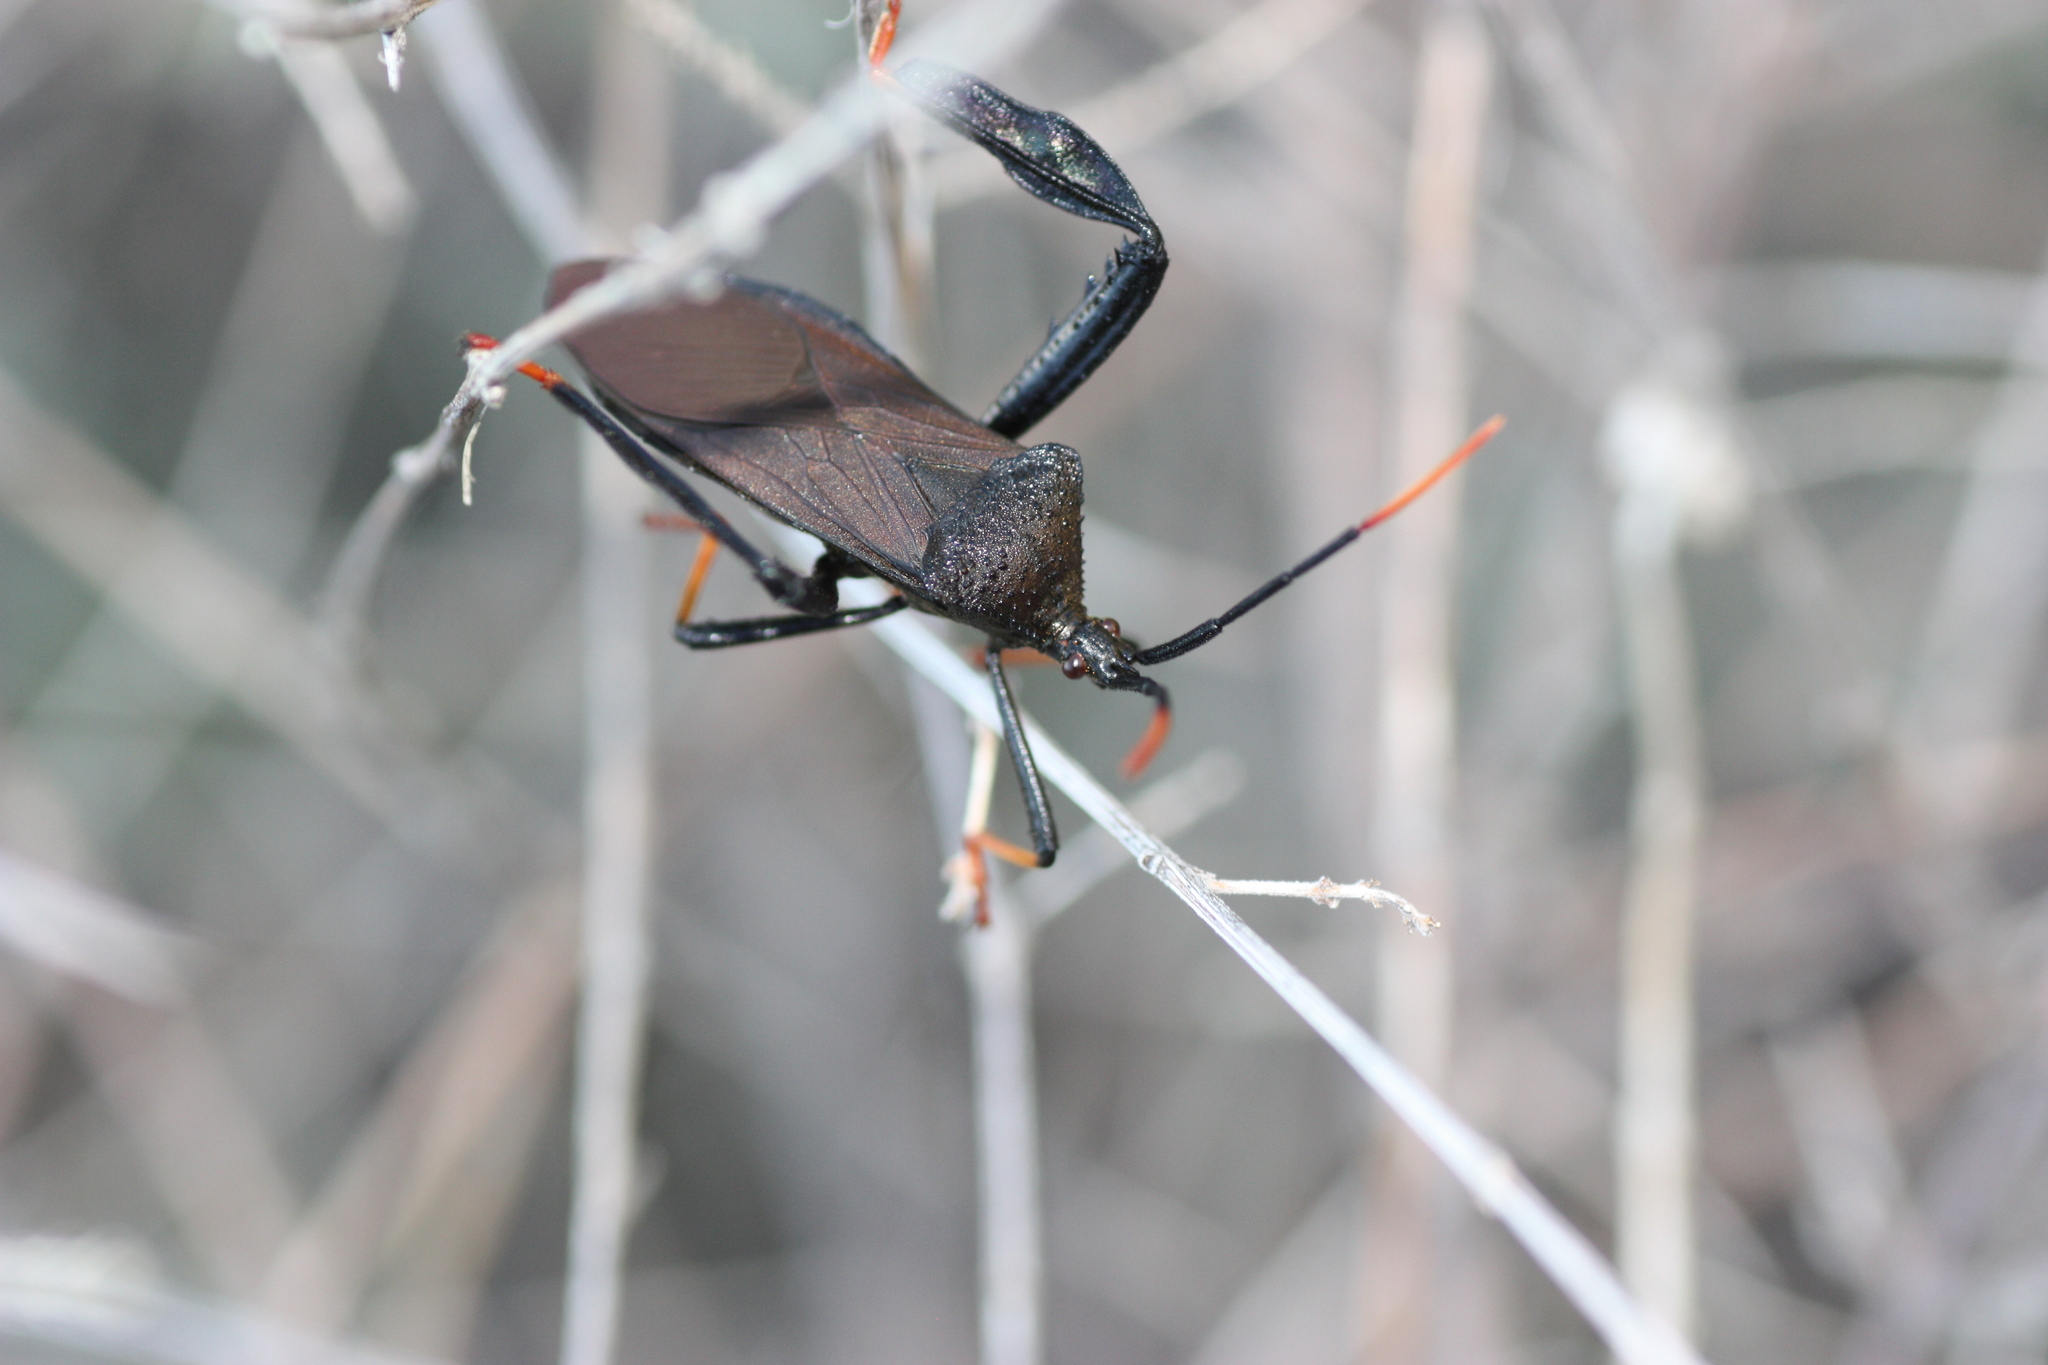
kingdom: Animalia
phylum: Arthropoda
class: Insecta
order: Hemiptera
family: Coreidae
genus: Acanthocephala
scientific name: Acanthocephala thomasi
